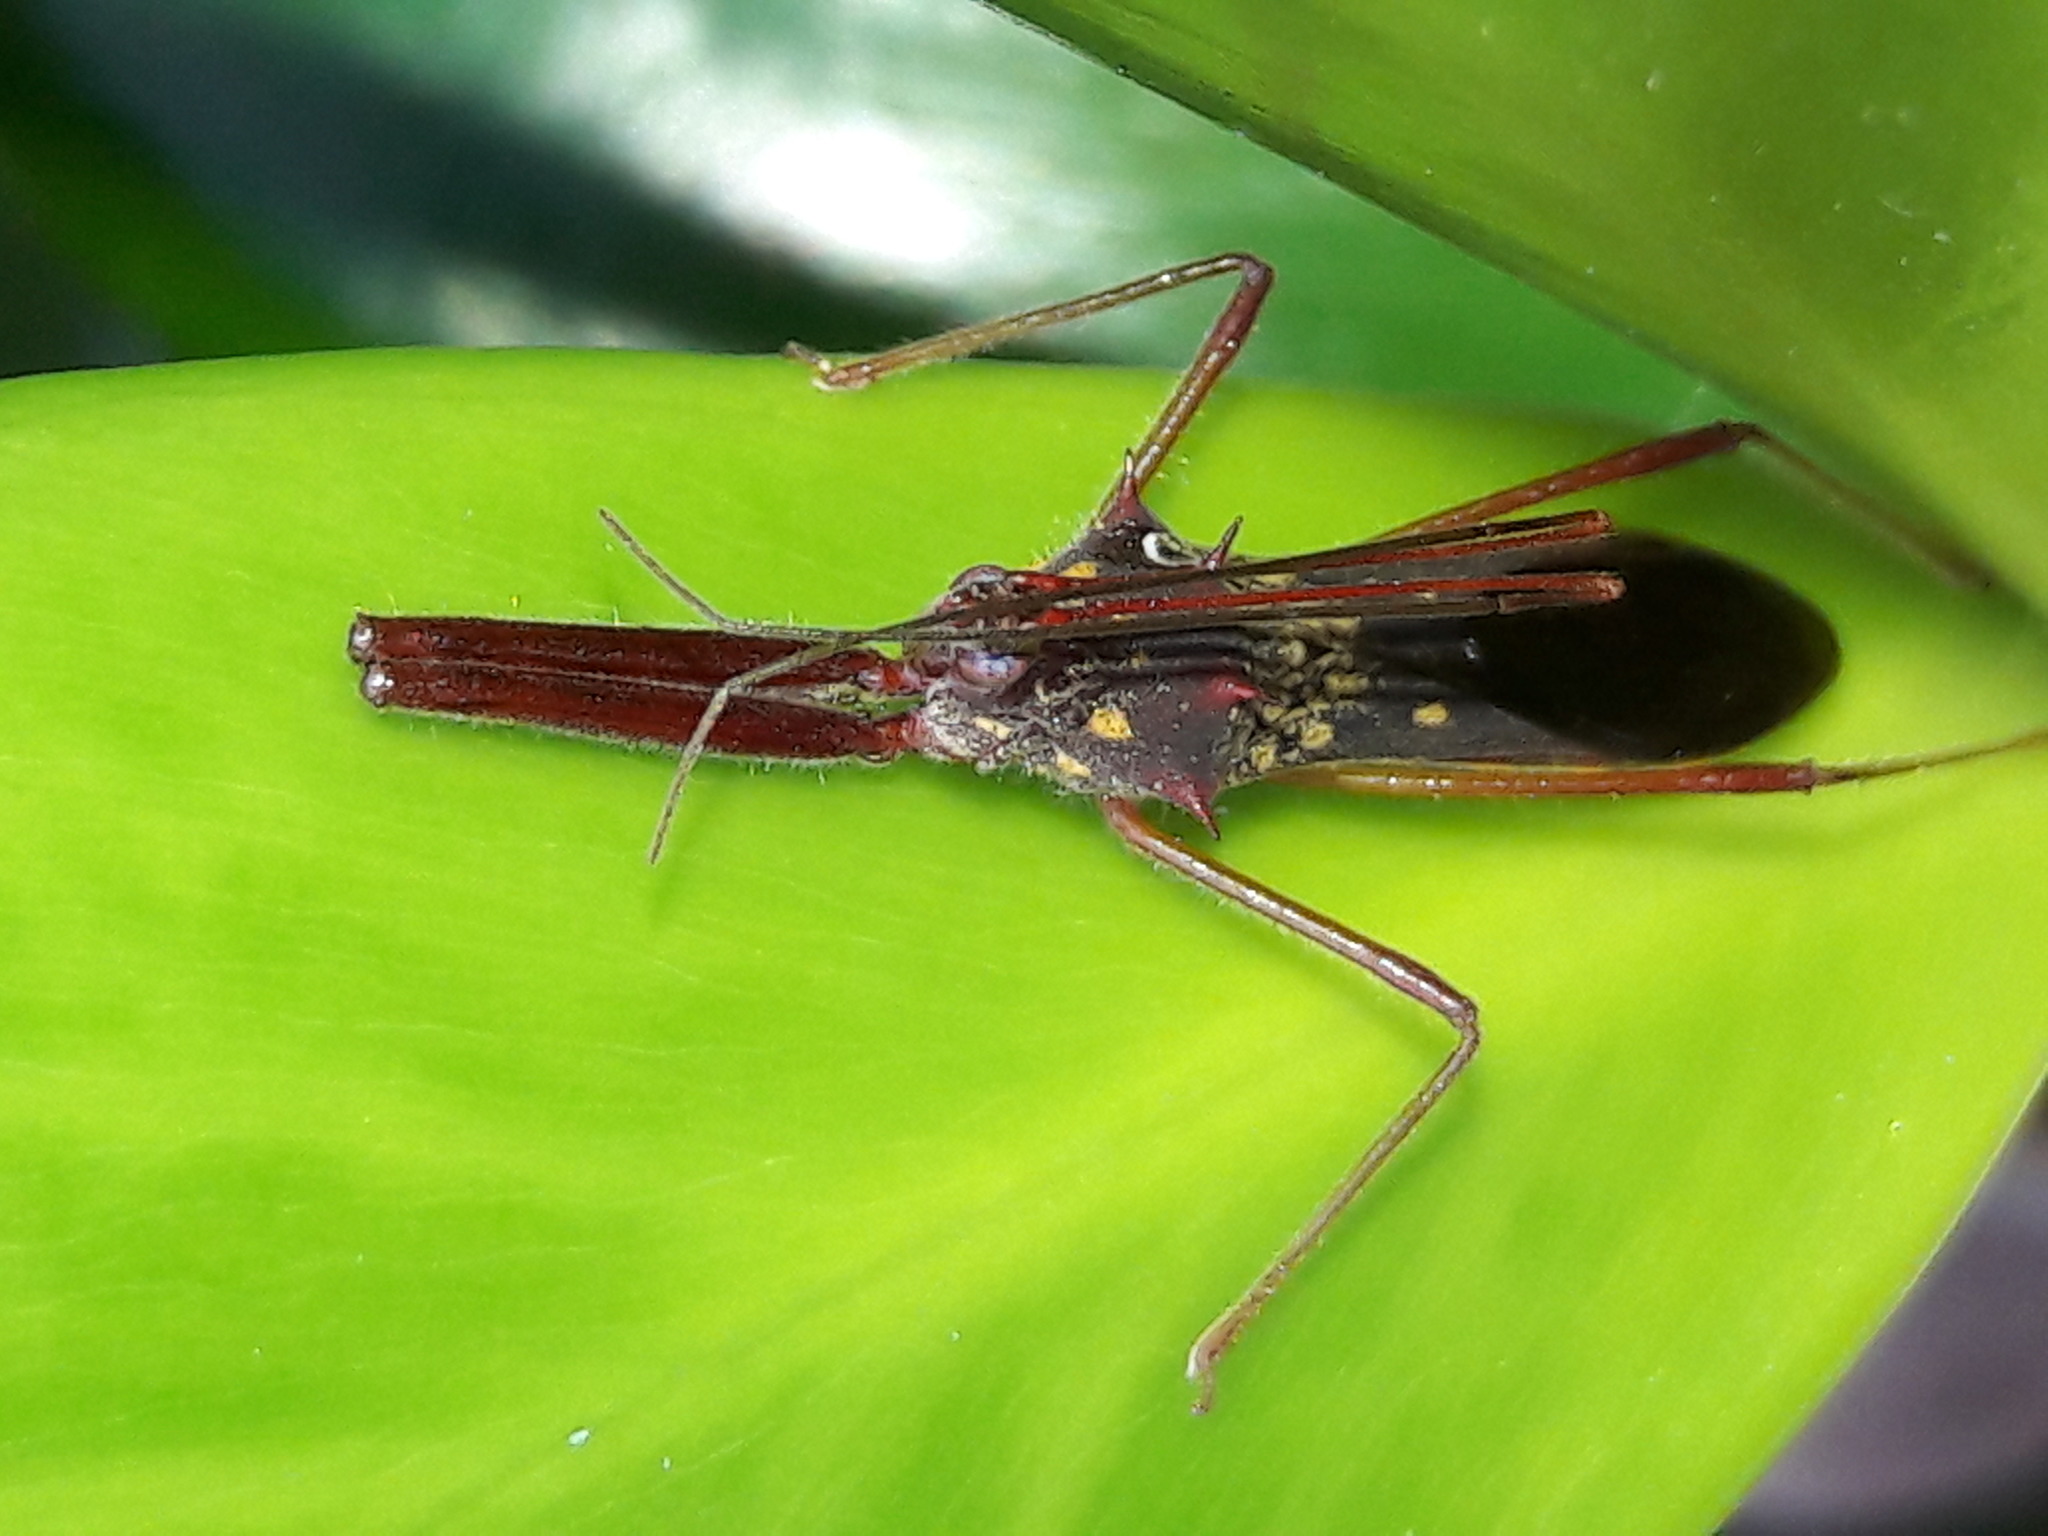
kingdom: Animalia
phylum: Arthropoda
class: Insecta
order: Hemiptera
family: Reduviidae
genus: Heza
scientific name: Heza binotata
